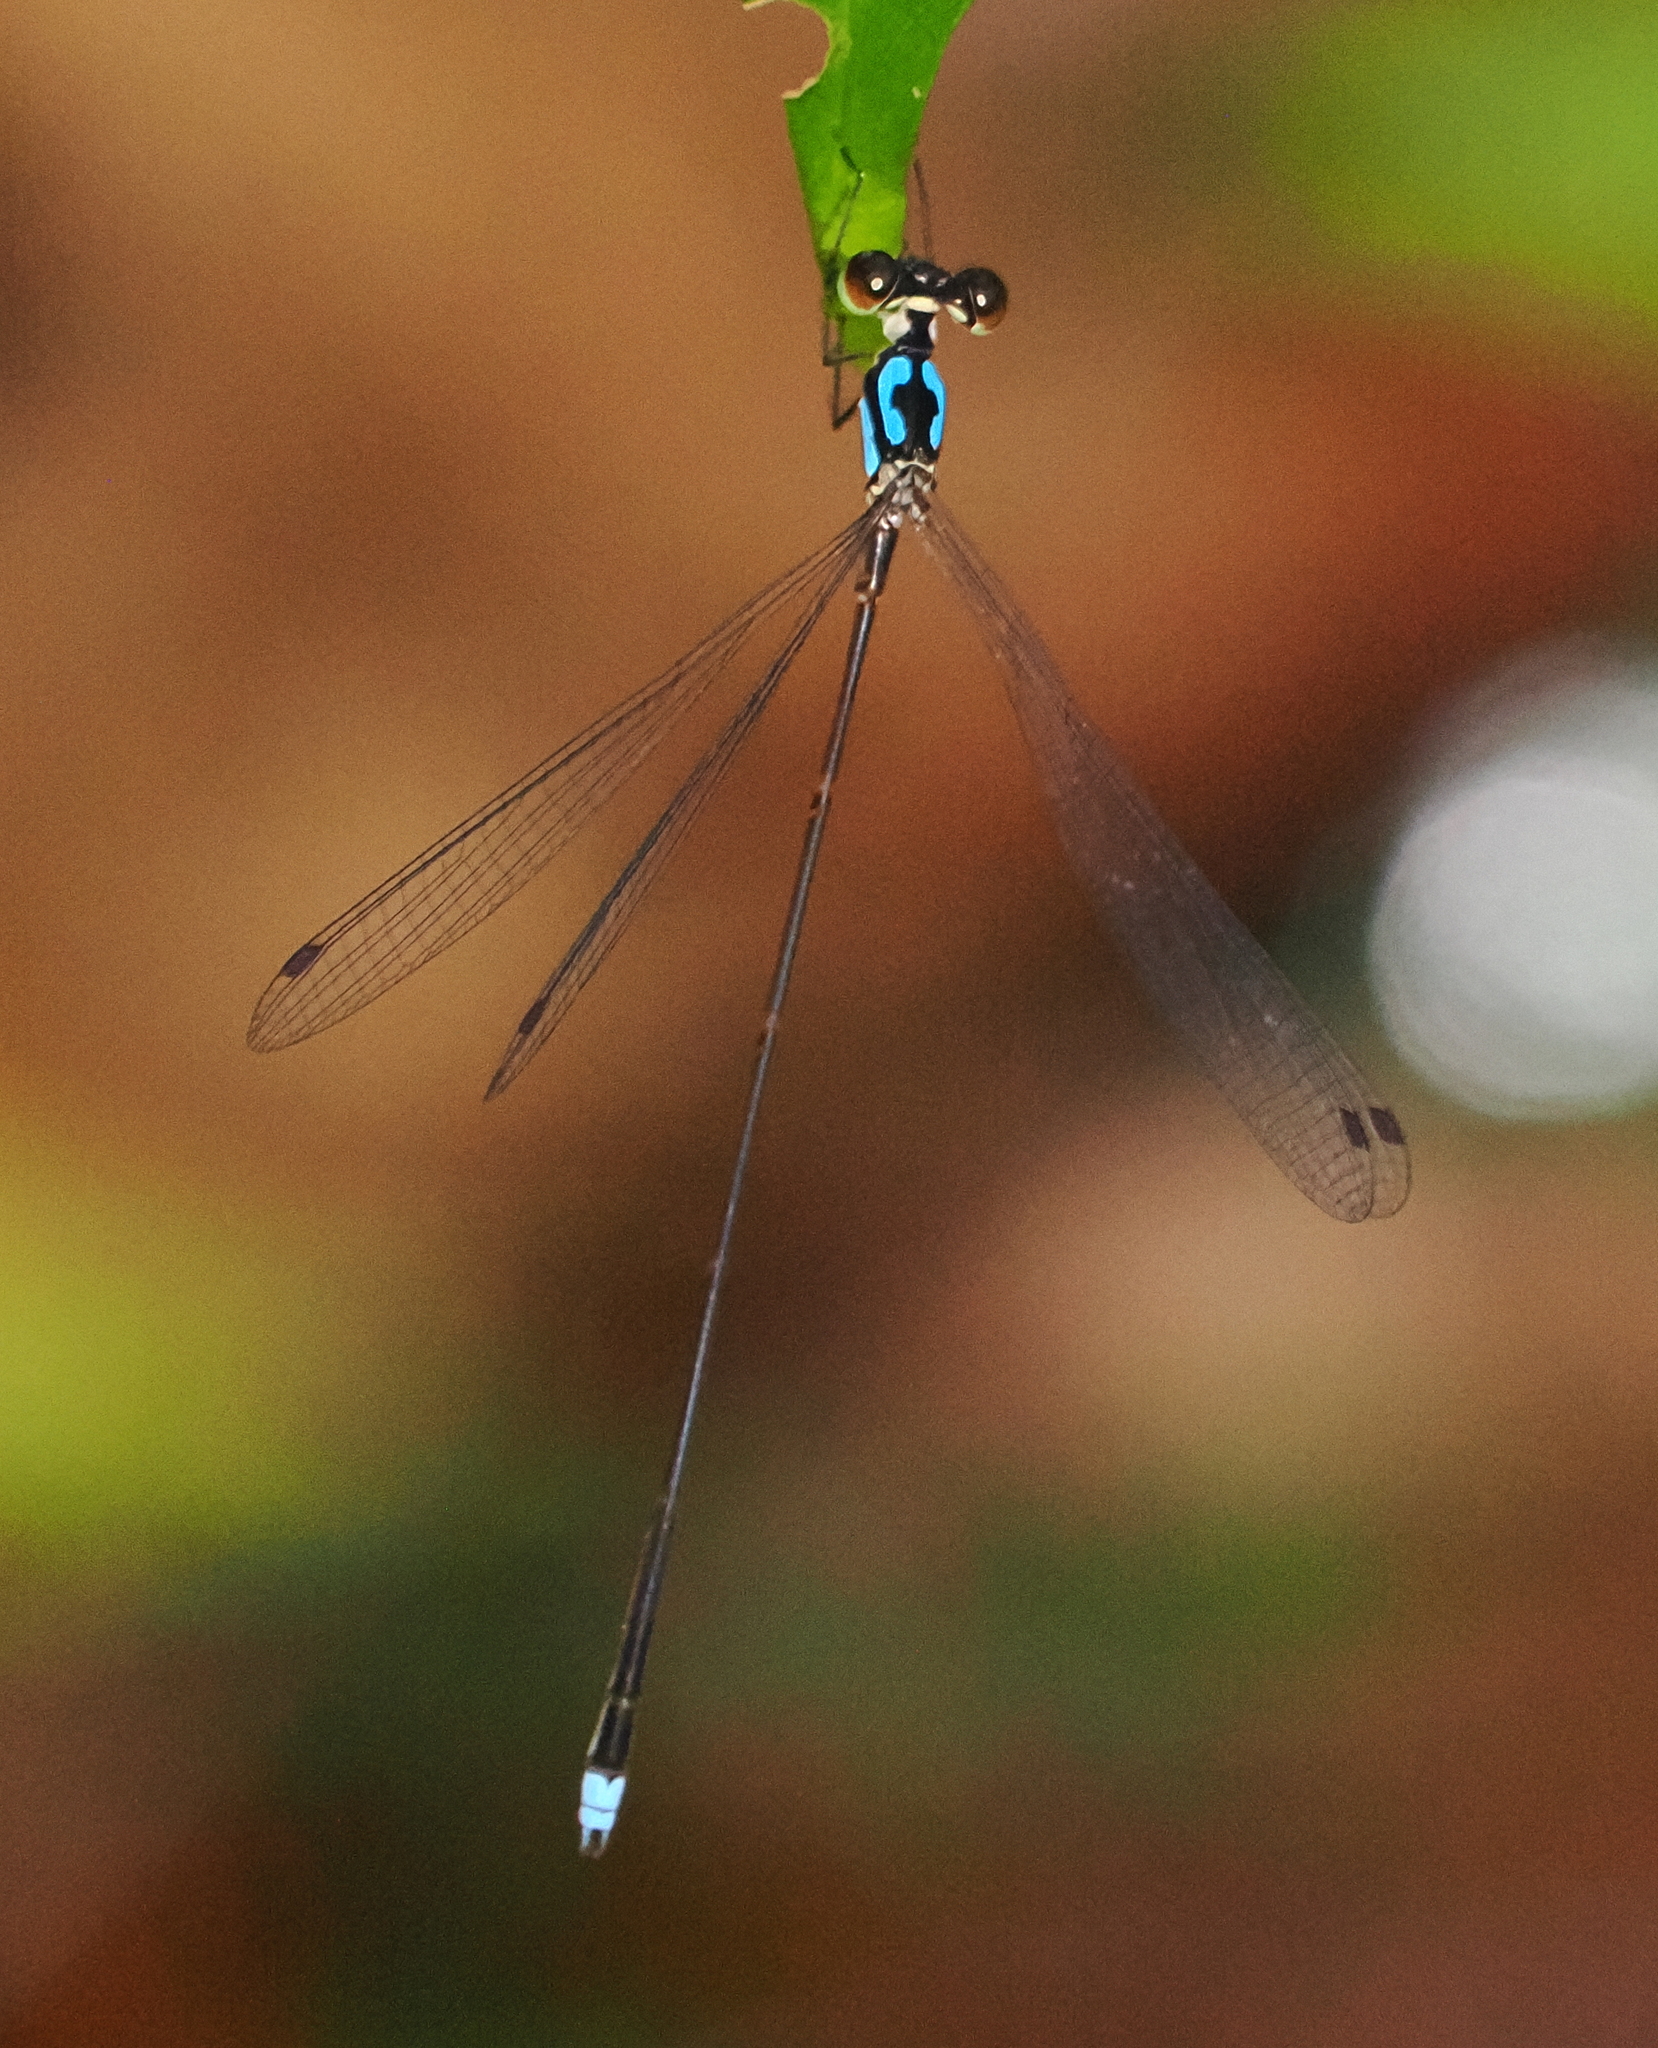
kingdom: Animalia
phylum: Arthropoda
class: Insecta
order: Odonata
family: Platycnemididae
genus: Coeliccia
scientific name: Coeliccia octogesima
